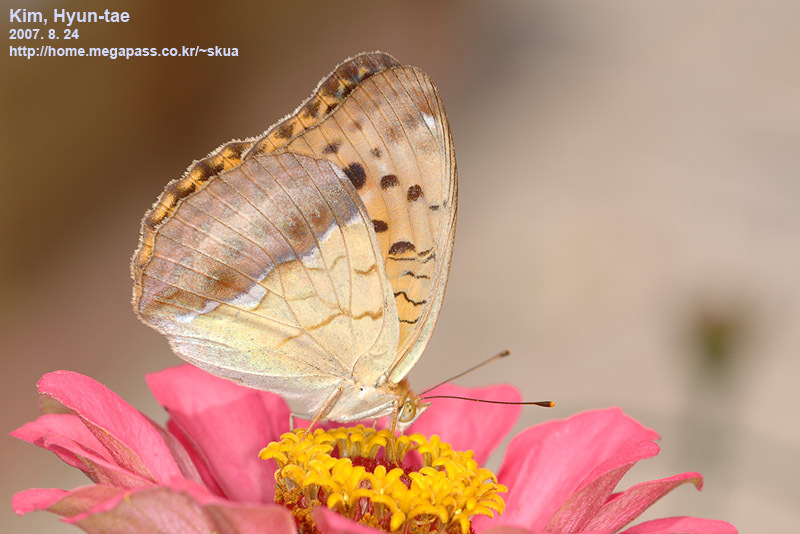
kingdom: Animalia
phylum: Arthropoda
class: Insecta
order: Lepidoptera
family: Nymphalidae
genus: Argyronome
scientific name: Argyronome laodice
